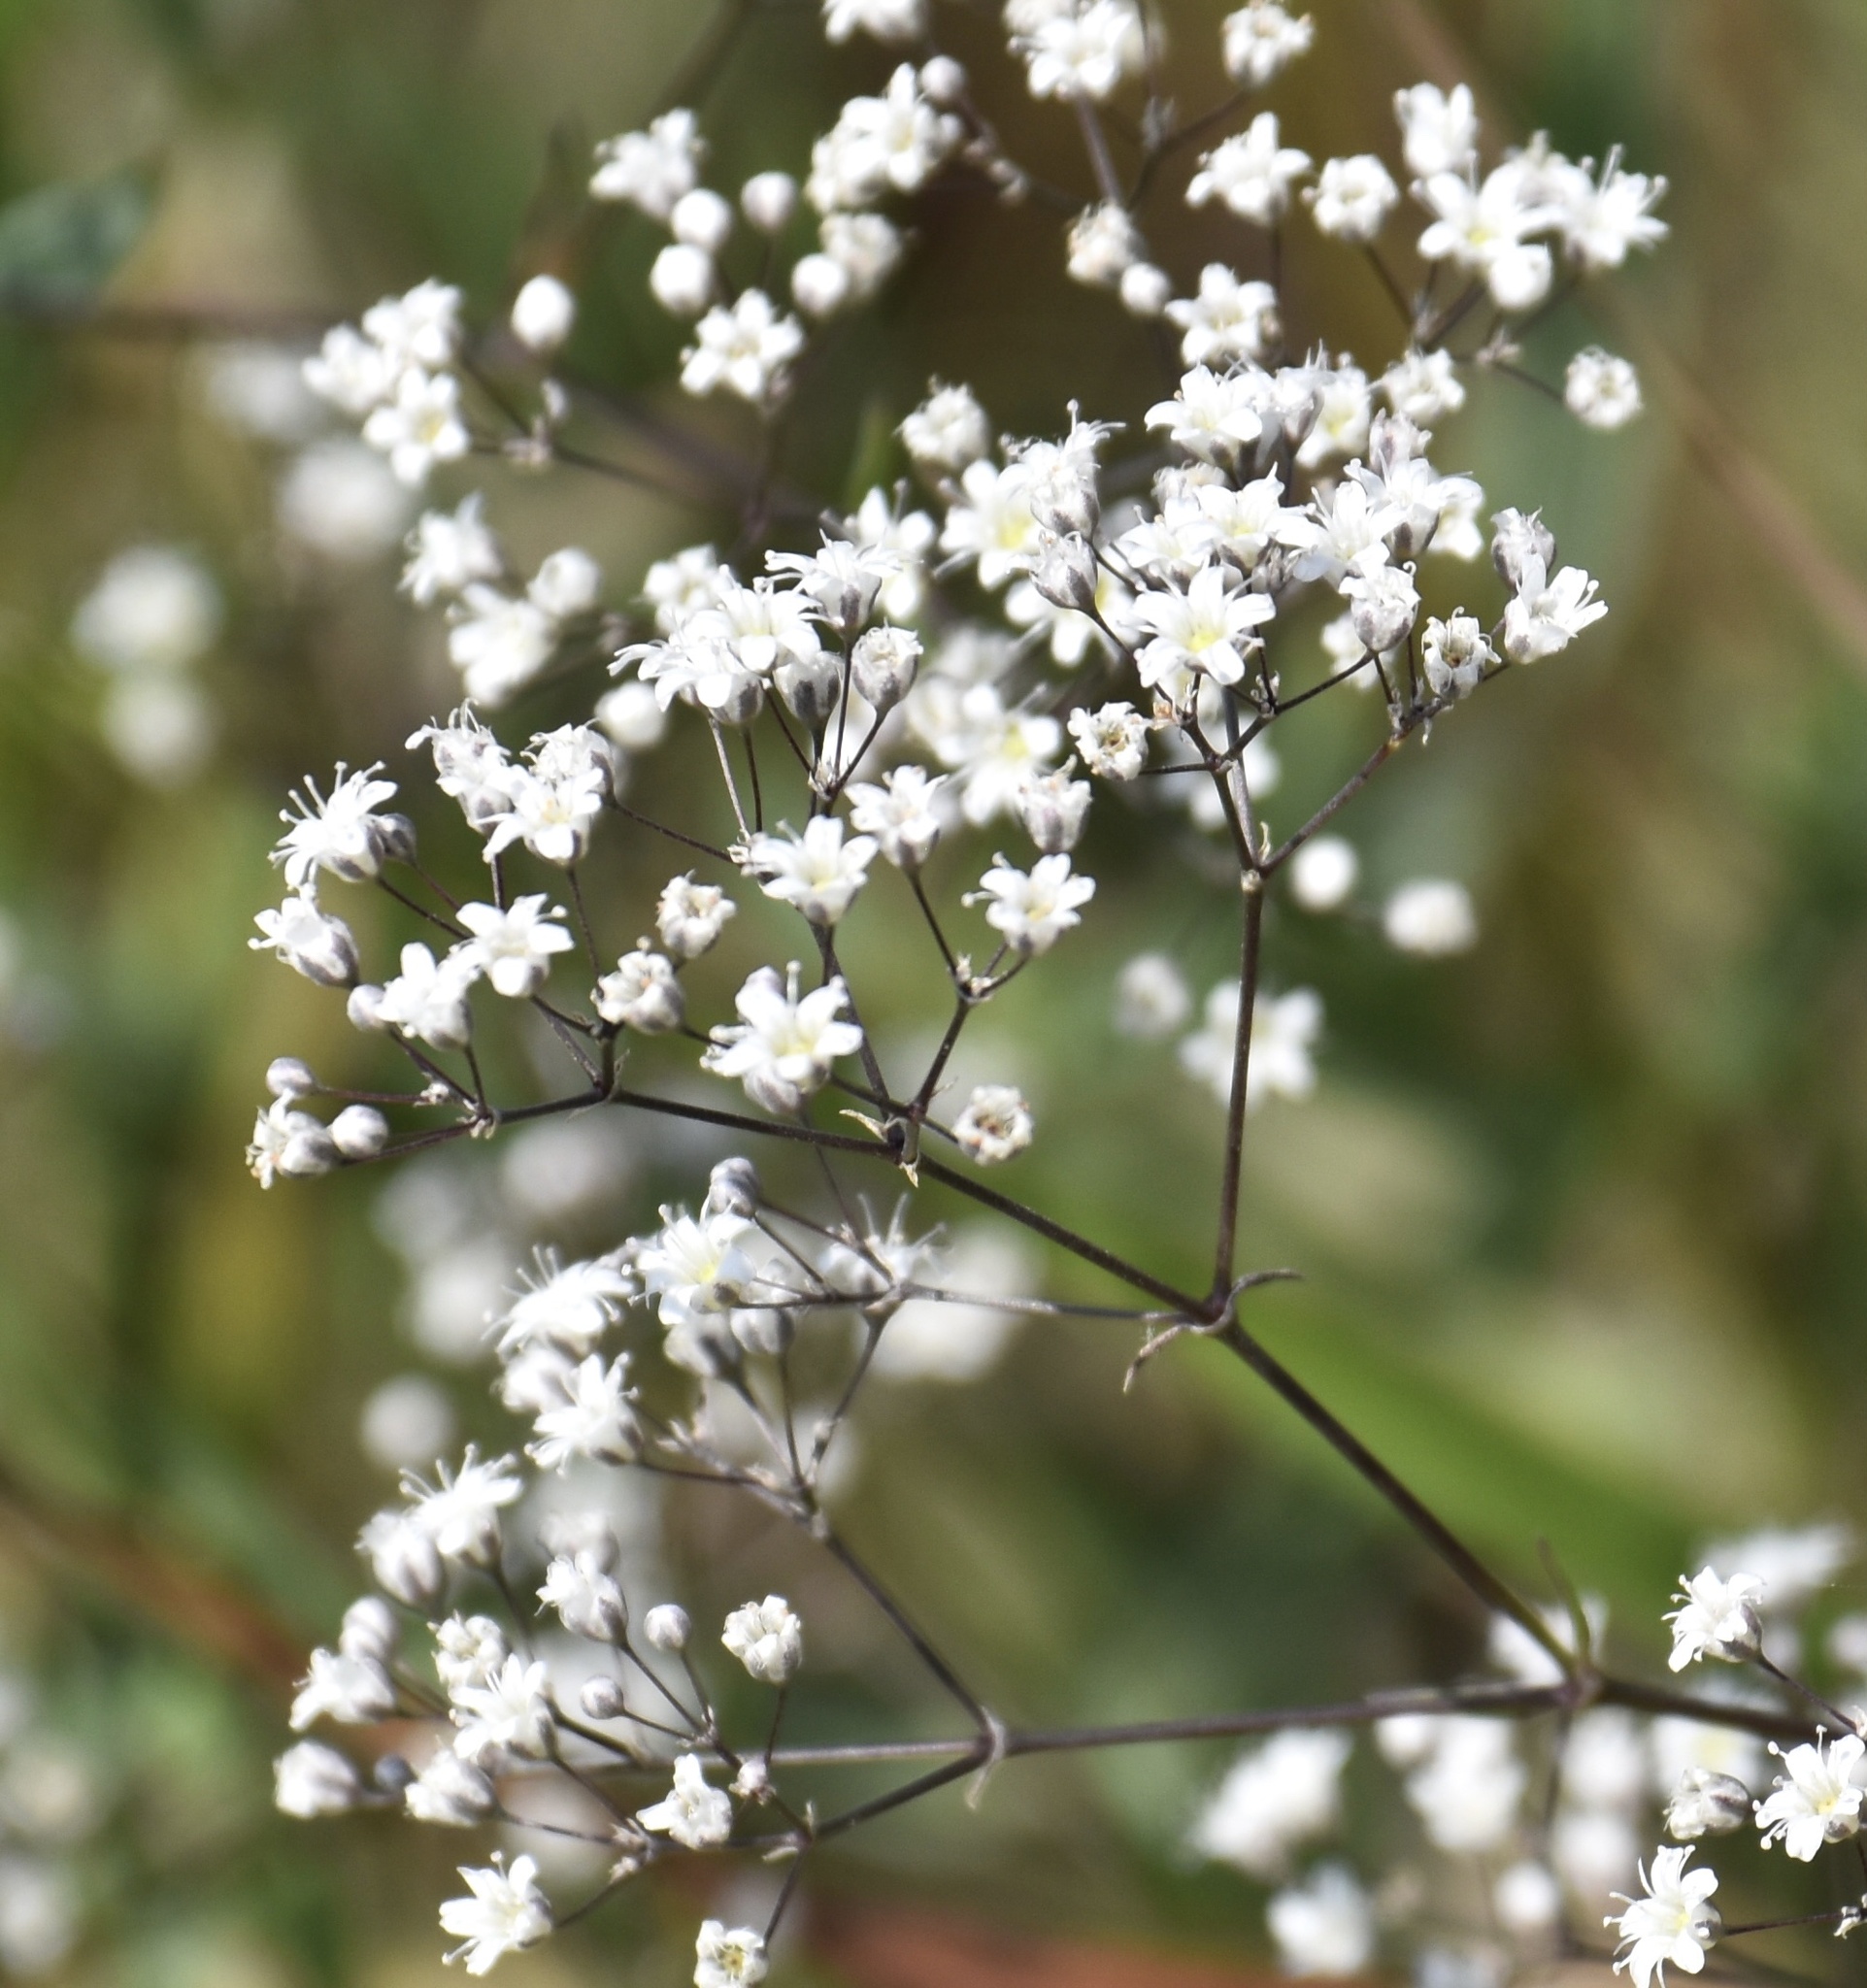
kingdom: Plantae
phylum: Tracheophyta
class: Magnoliopsida
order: Caryophyllales
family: Caryophyllaceae
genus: Gypsophila
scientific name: Gypsophila paniculata
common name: Baby's-breath
